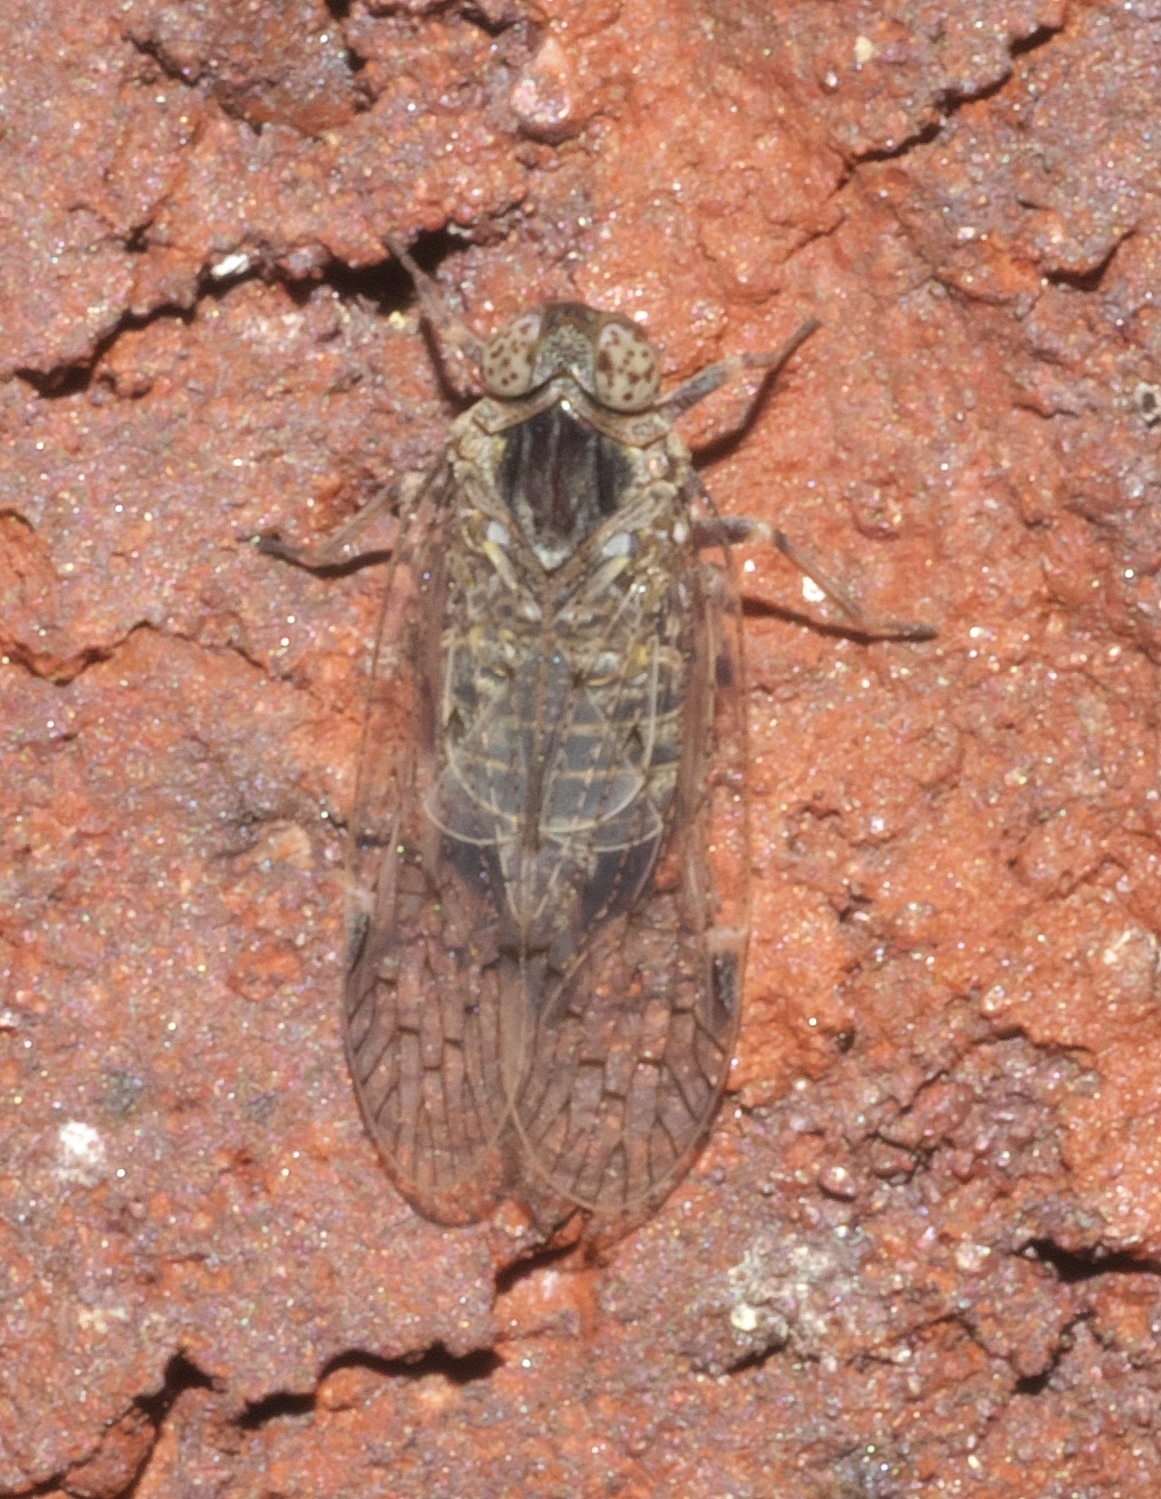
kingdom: Animalia
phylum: Arthropoda
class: Insecta
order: Hemiptera
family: Cixiidae
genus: Melanoliarus
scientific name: Melanoliarus aridus
